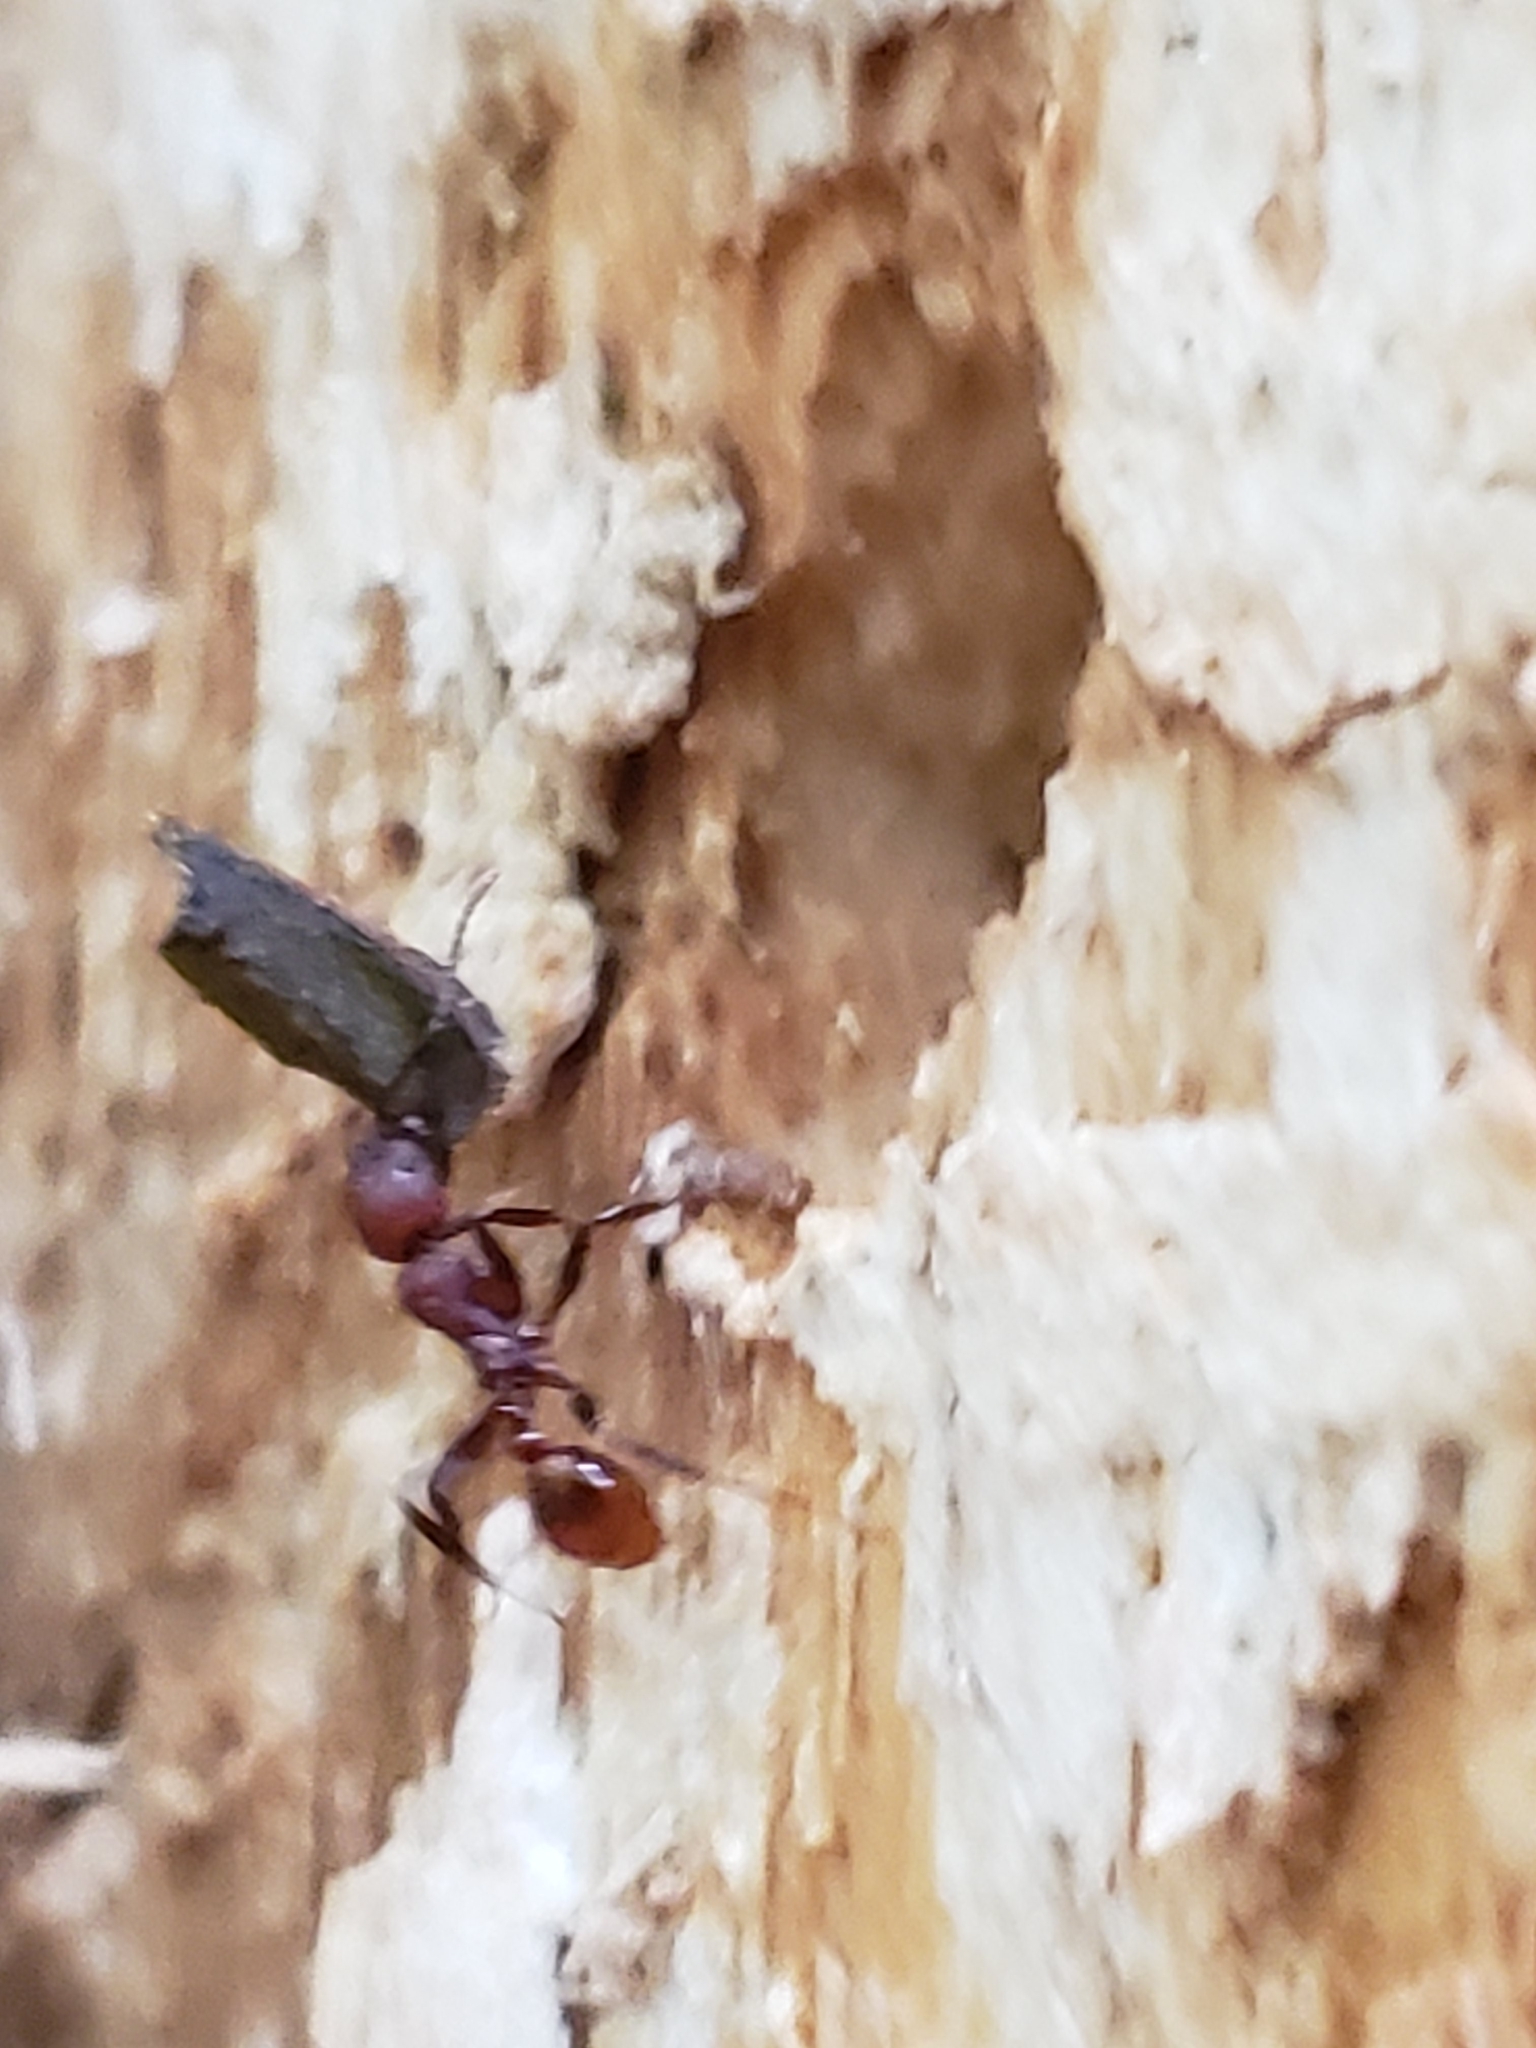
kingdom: Animalia
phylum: Arthropoda
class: Insecta
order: Hymenoptera
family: Formicidae
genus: Aphaenogaster
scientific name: Aphaenogaster tennesseensis
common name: Tennessee thread-waisted ant
